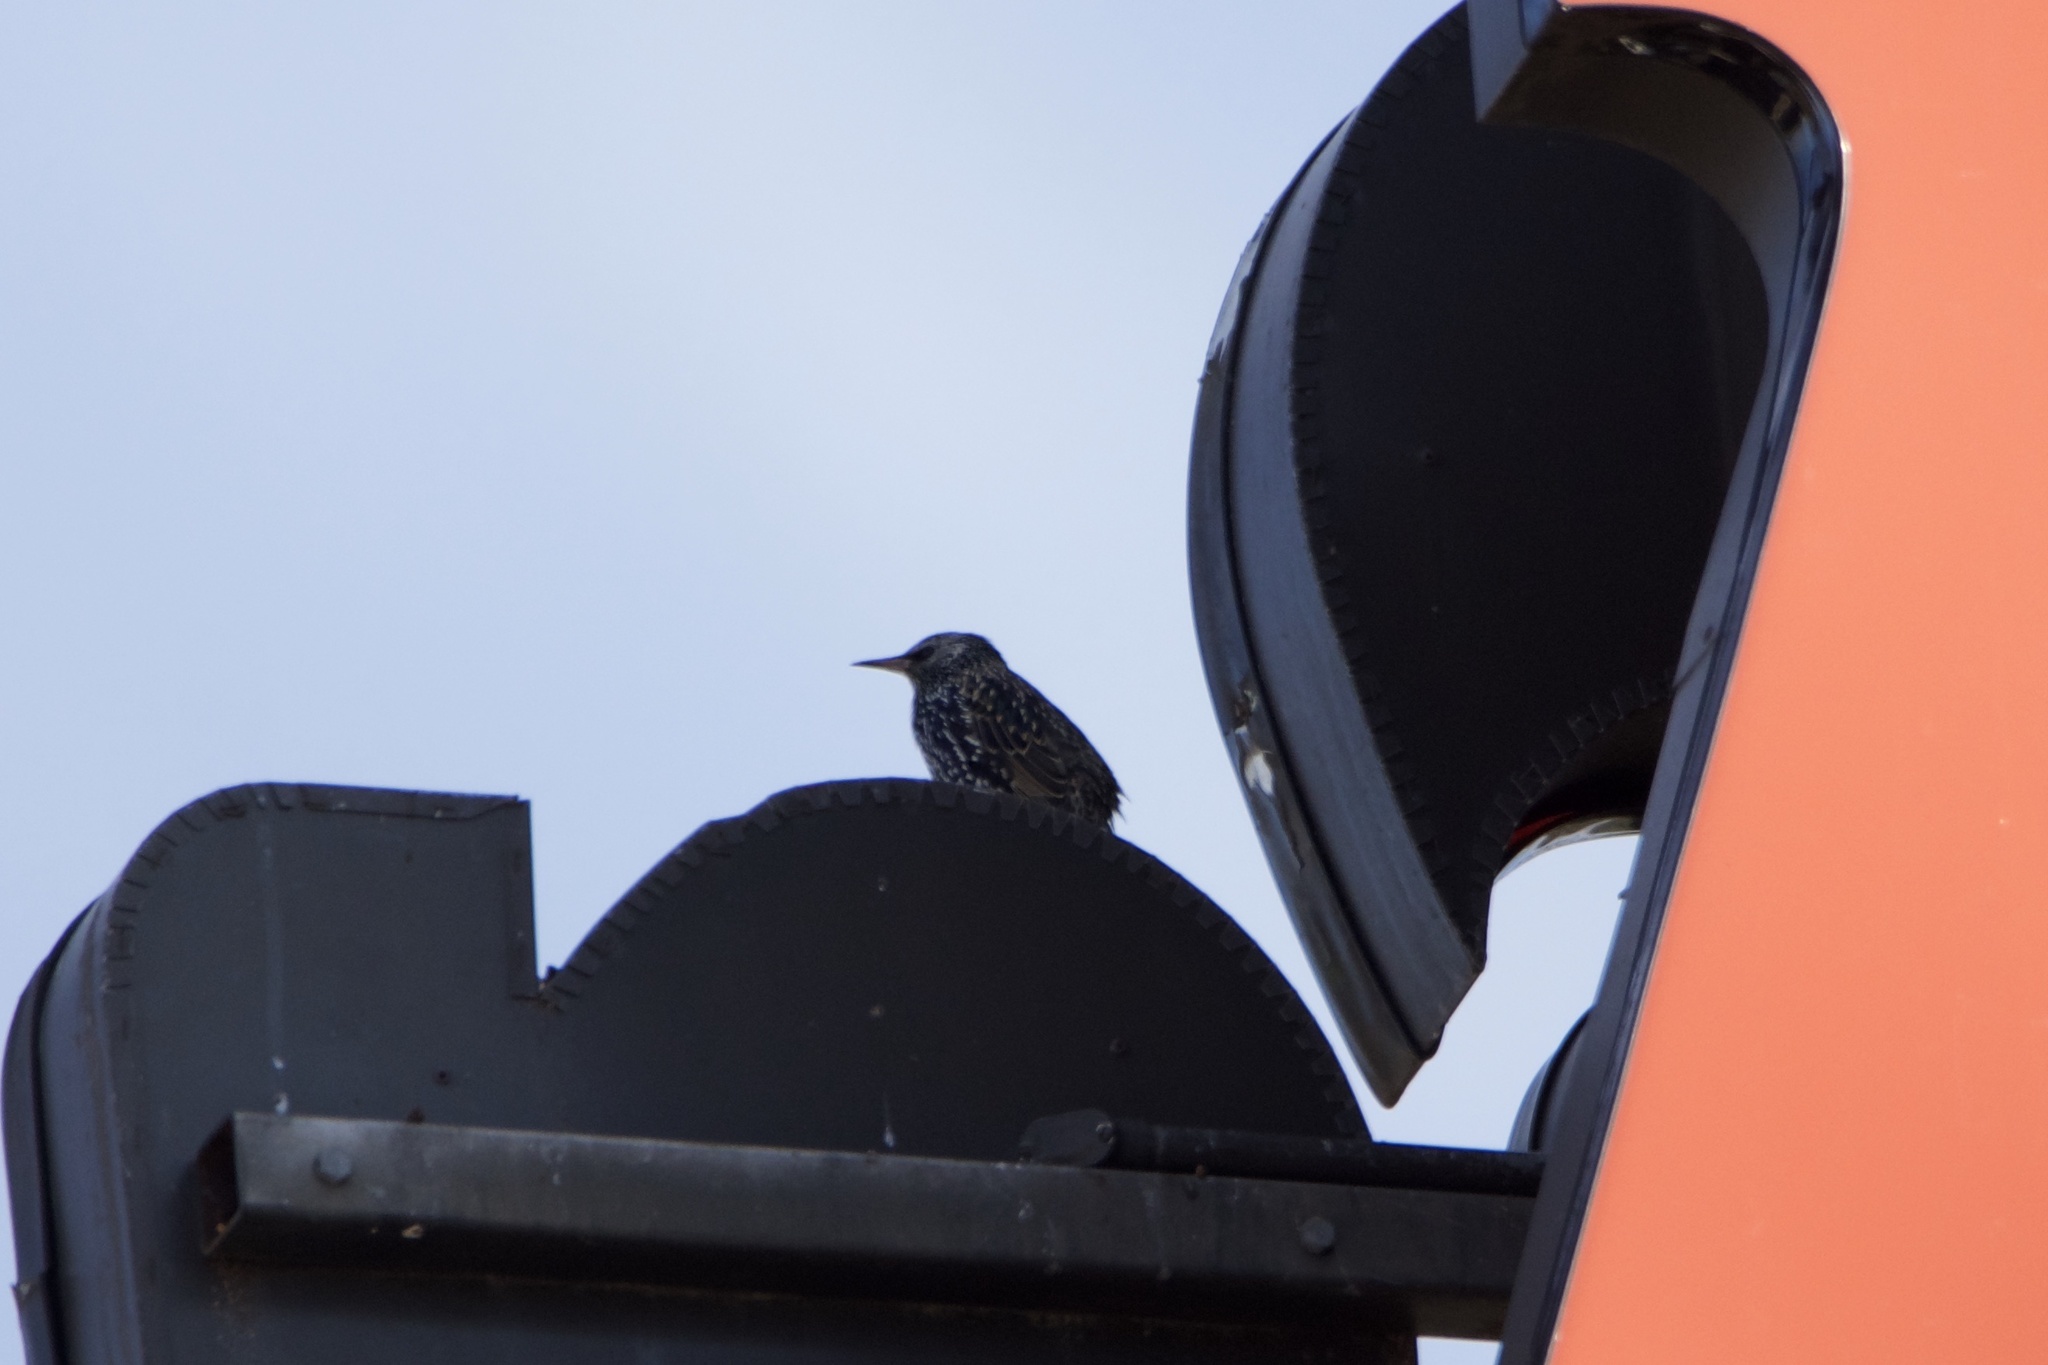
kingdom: Animalia
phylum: Chordata
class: Aves
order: Passeriformes
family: Sturnidae
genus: Sturnus
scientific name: Sturnus vulgaris
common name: Common starling
